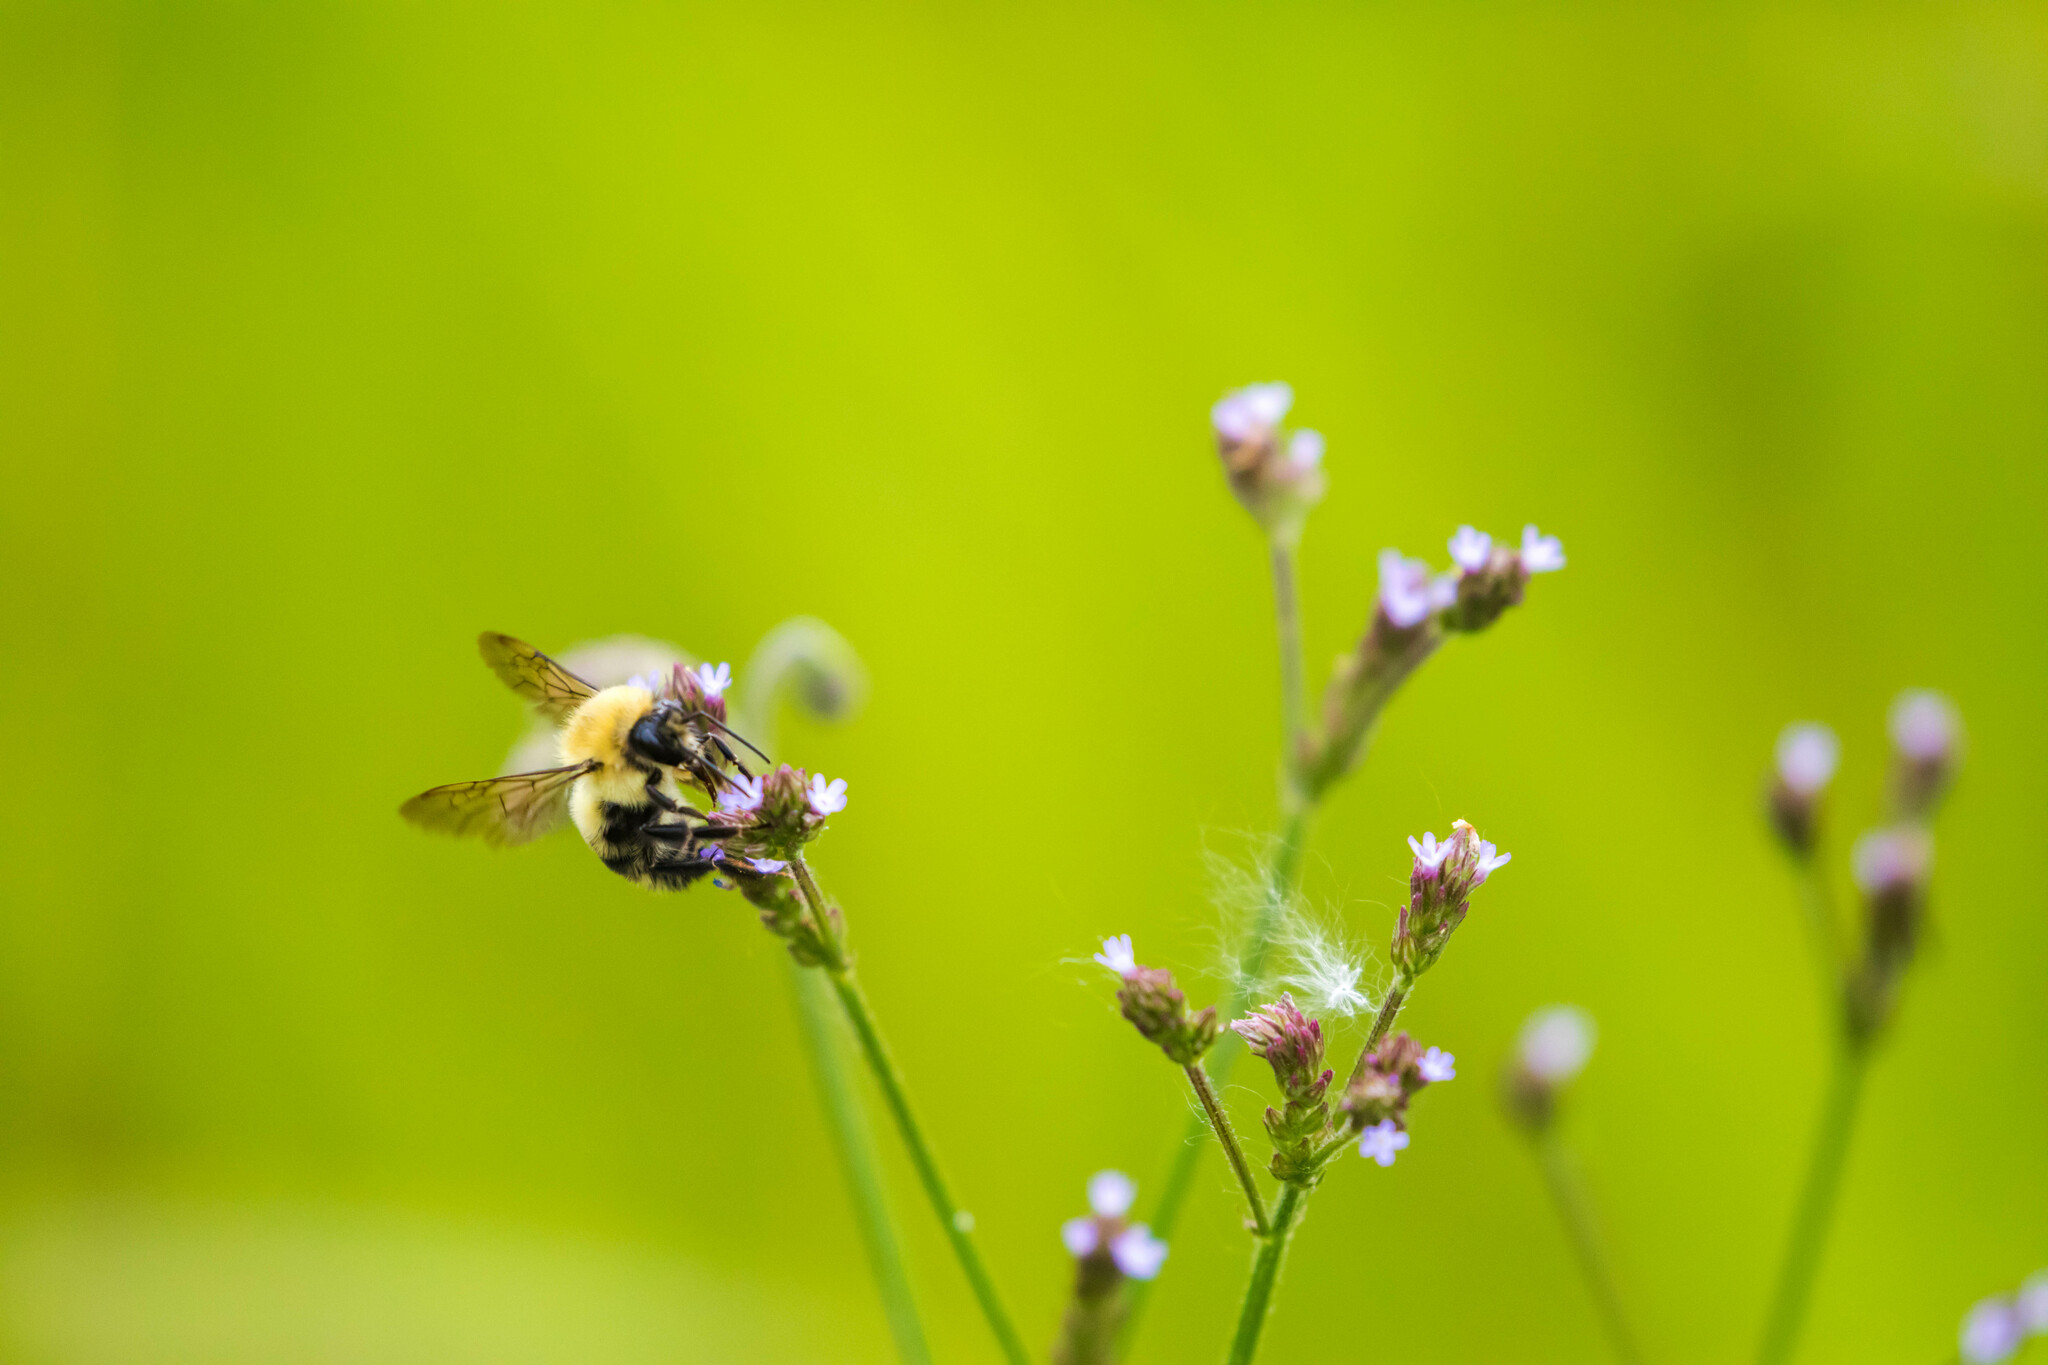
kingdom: Animalia
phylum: Arthropoda
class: Insecta
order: Hymenoptera
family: Apidae
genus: Bombus
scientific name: Bombus bimaculatus
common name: Two-spotted bumble bee
